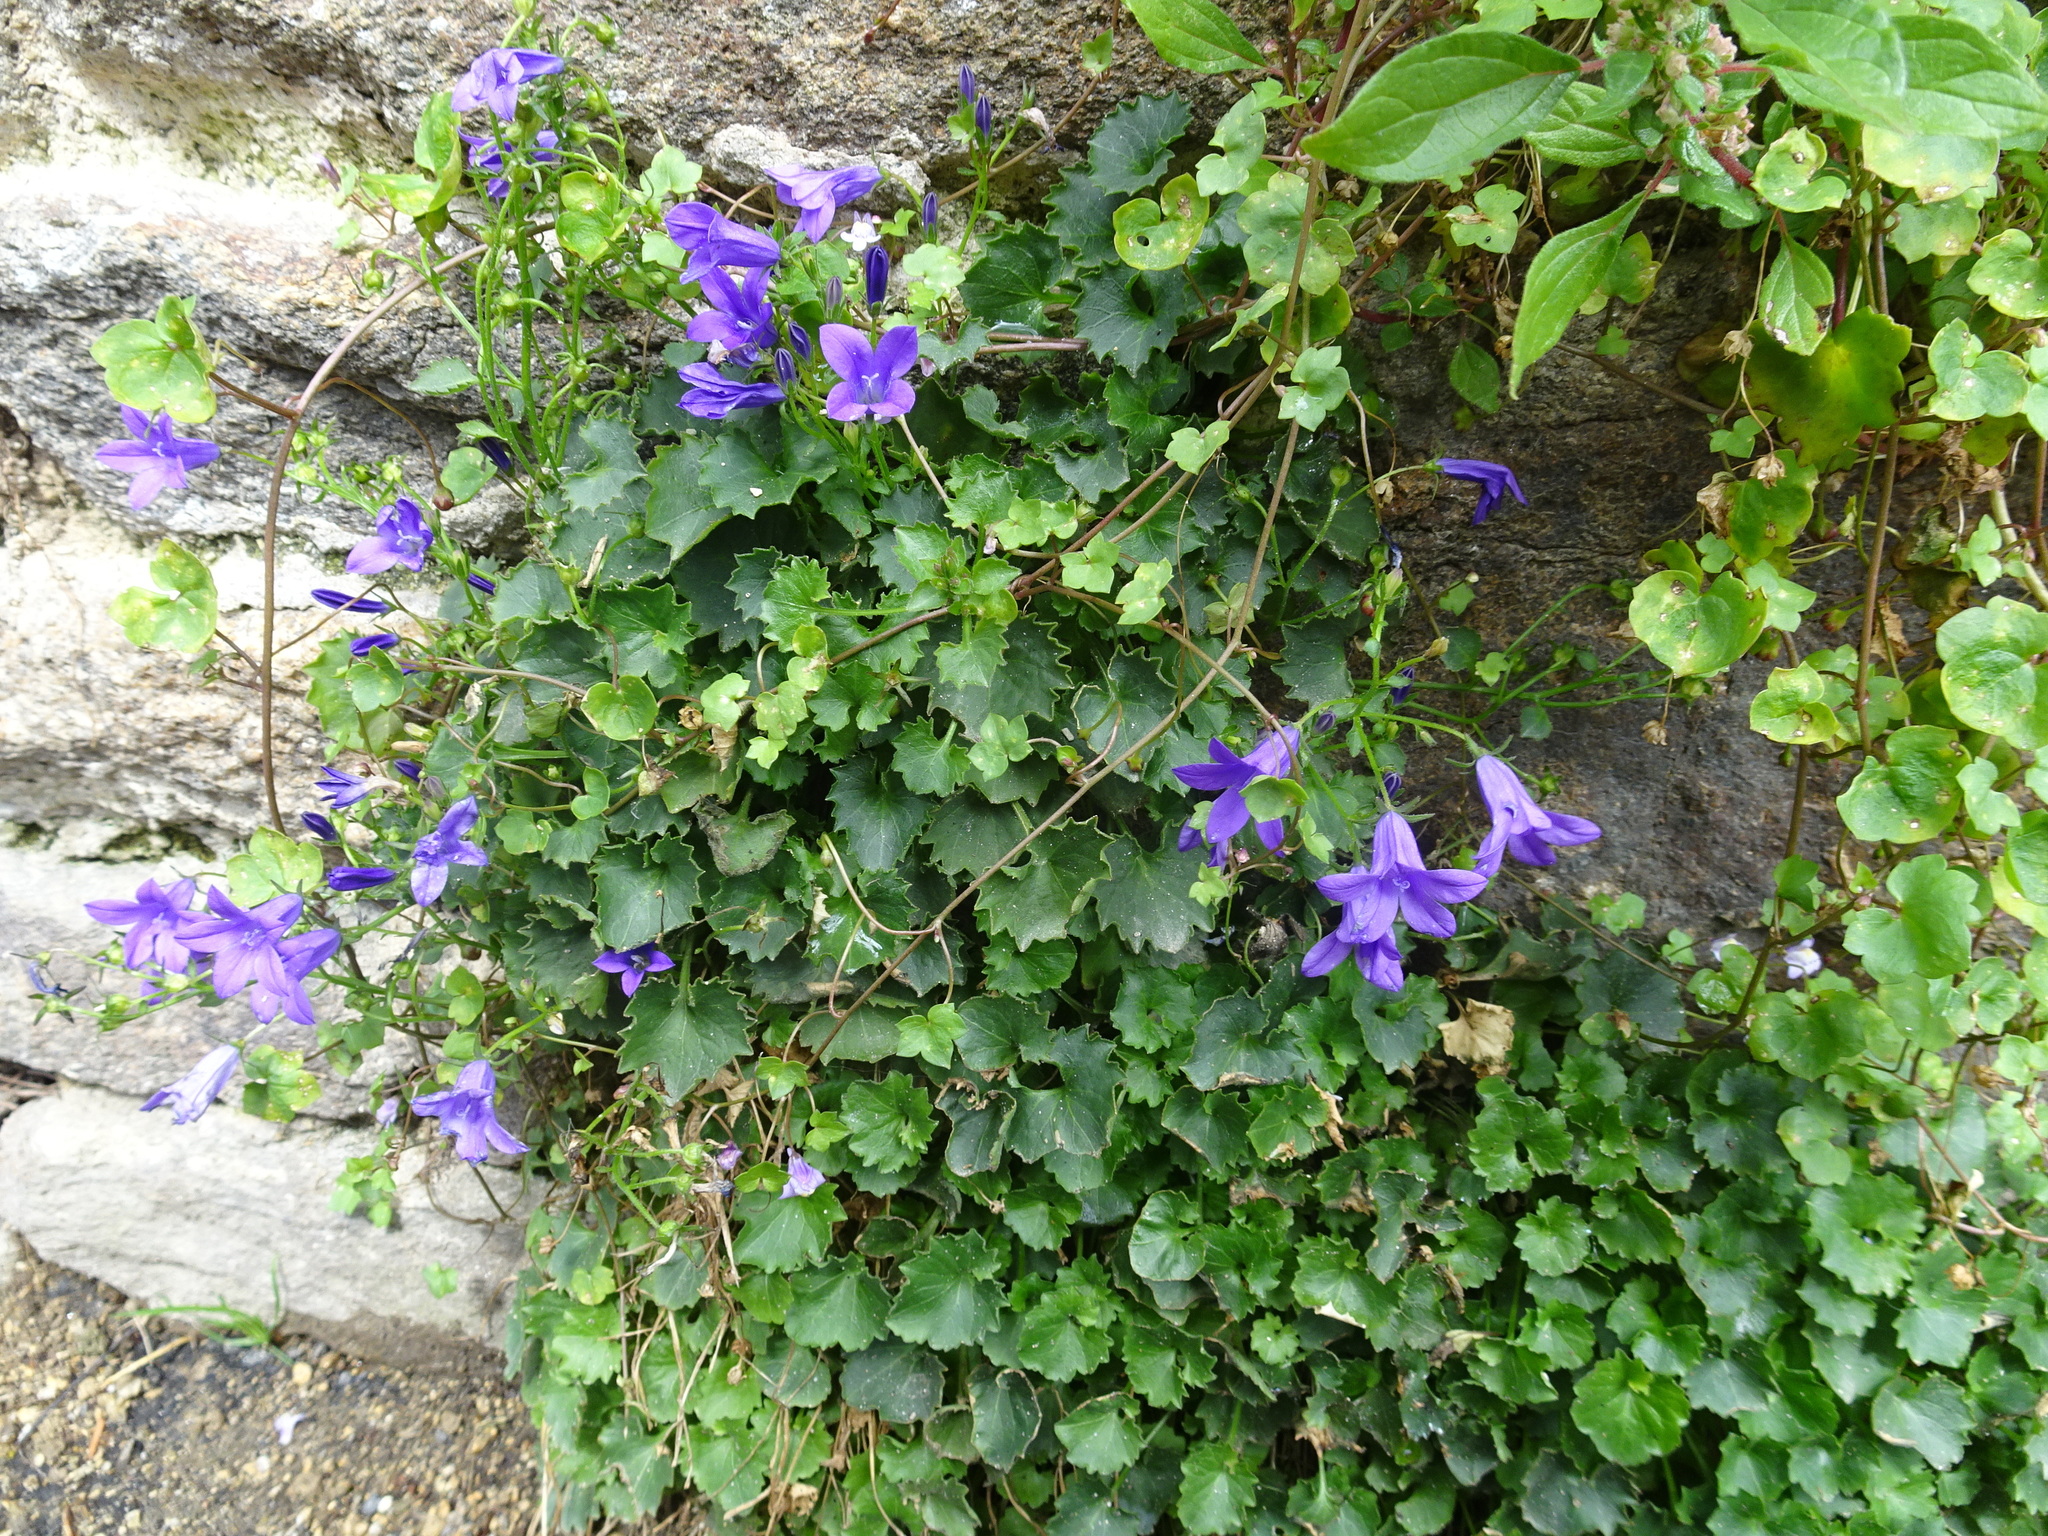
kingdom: Plantae
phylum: Tracheophyta
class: Magnoliopsida
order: Asterales
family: Campanulaceae
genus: Campanula
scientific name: Campanula poscharskyana
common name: Trailing bellflower
